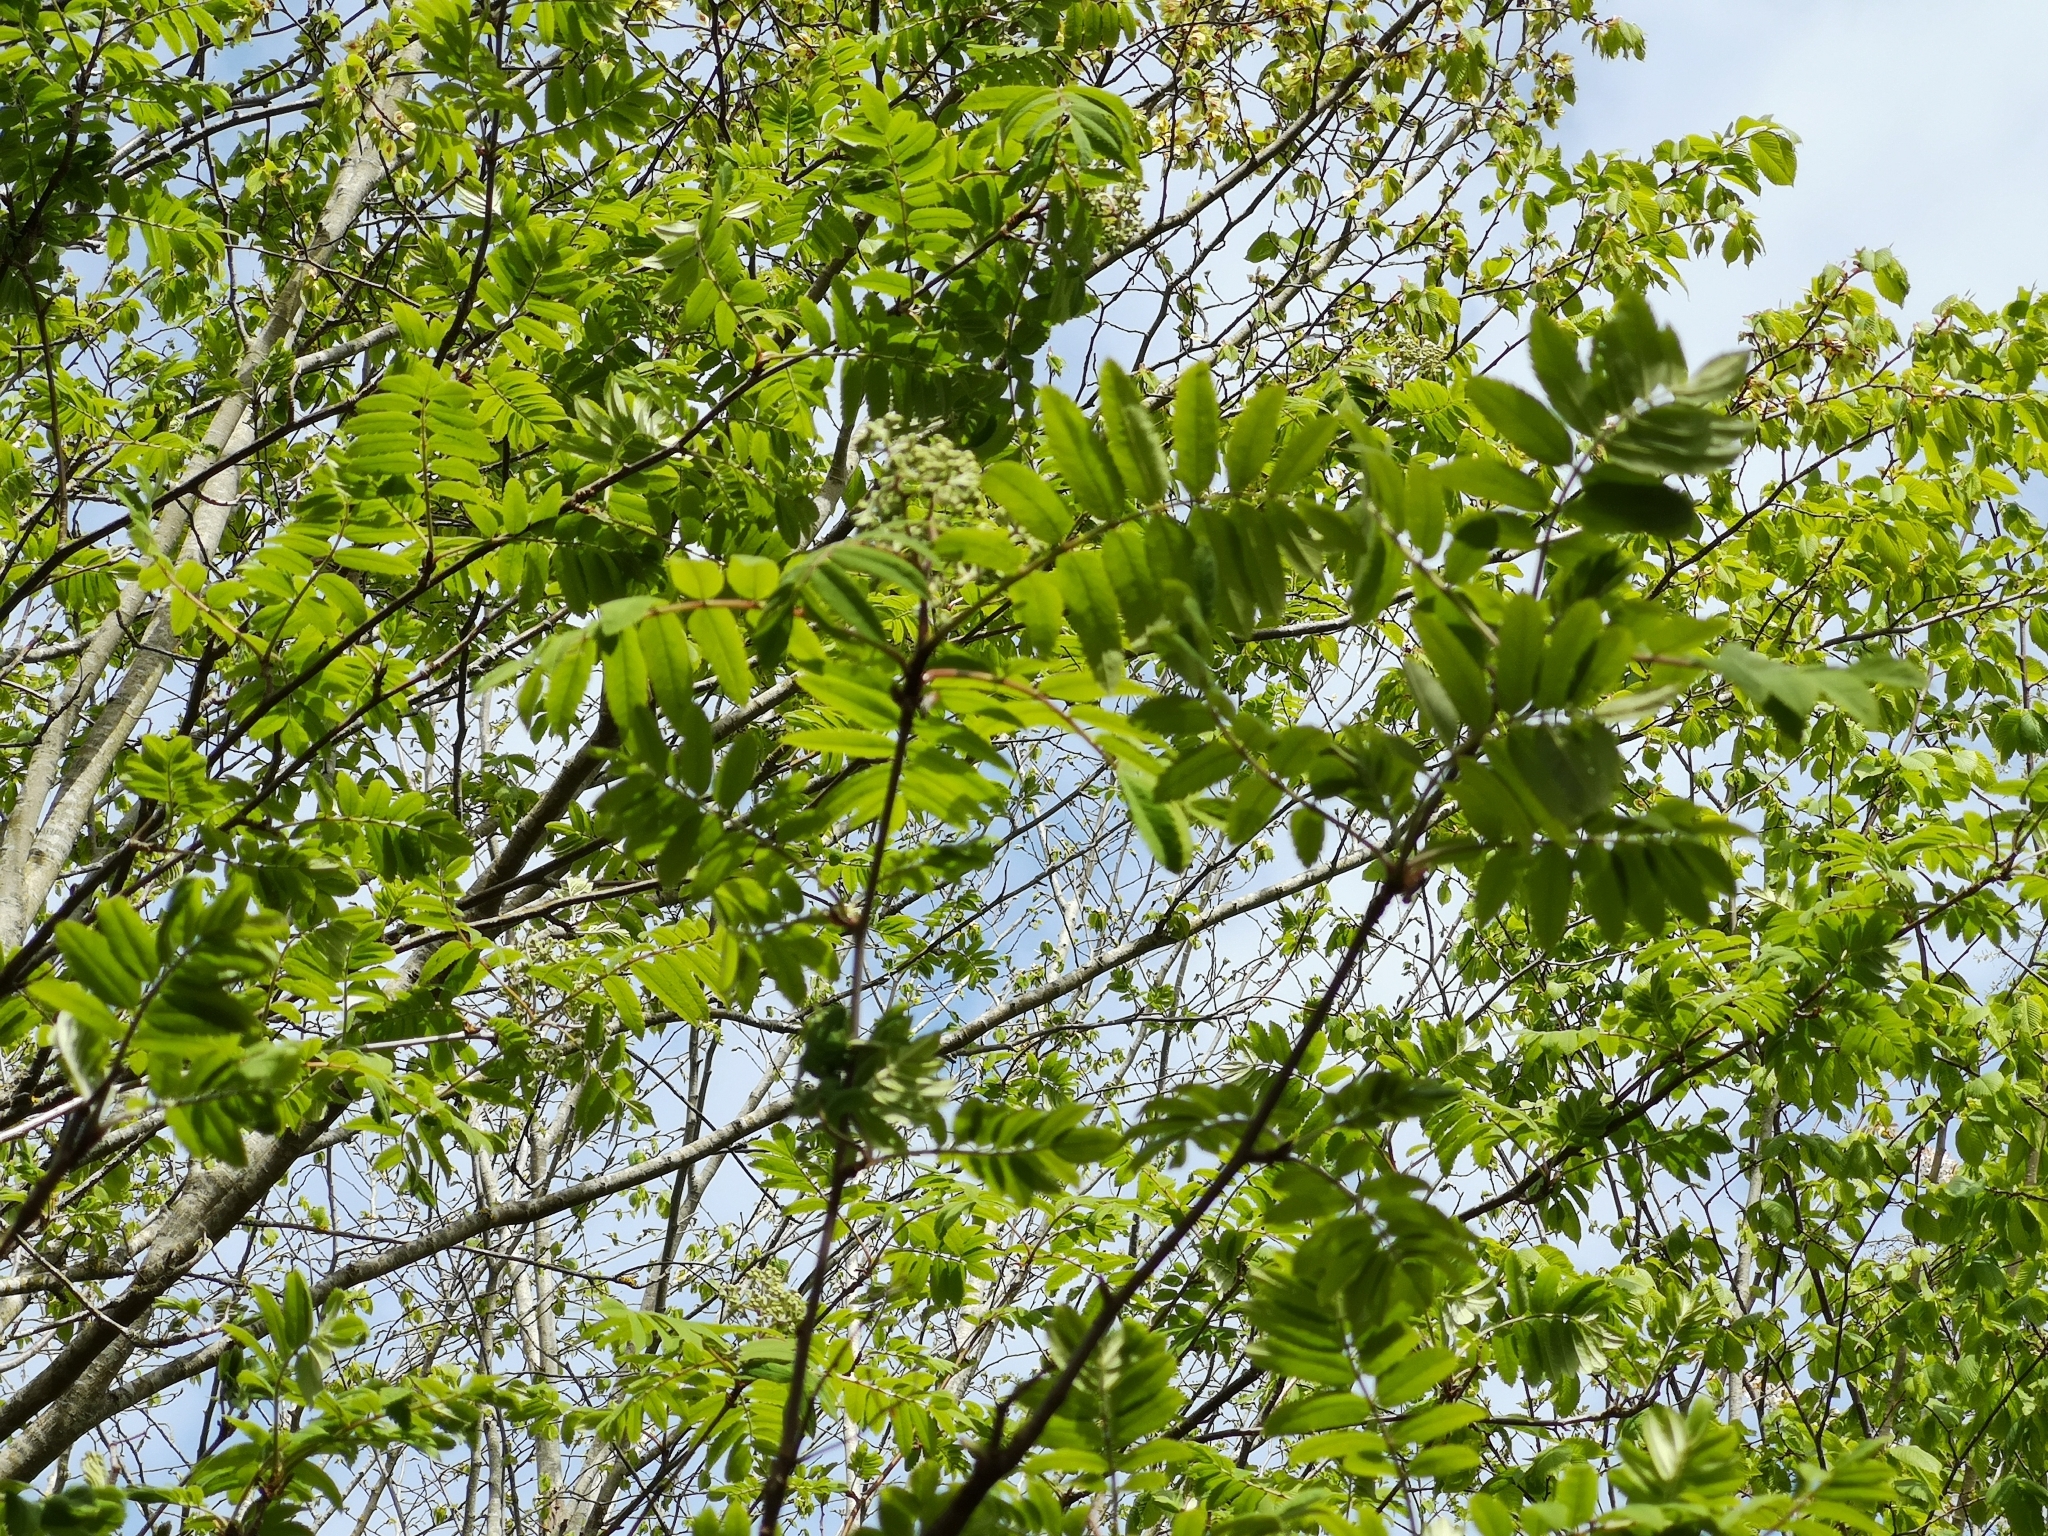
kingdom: Plantae
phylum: Tracheophyta
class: Magnoliopsida
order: Rosales
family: Rosaceae
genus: Sorbus
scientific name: Sorbus aucuparia
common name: Rowan
